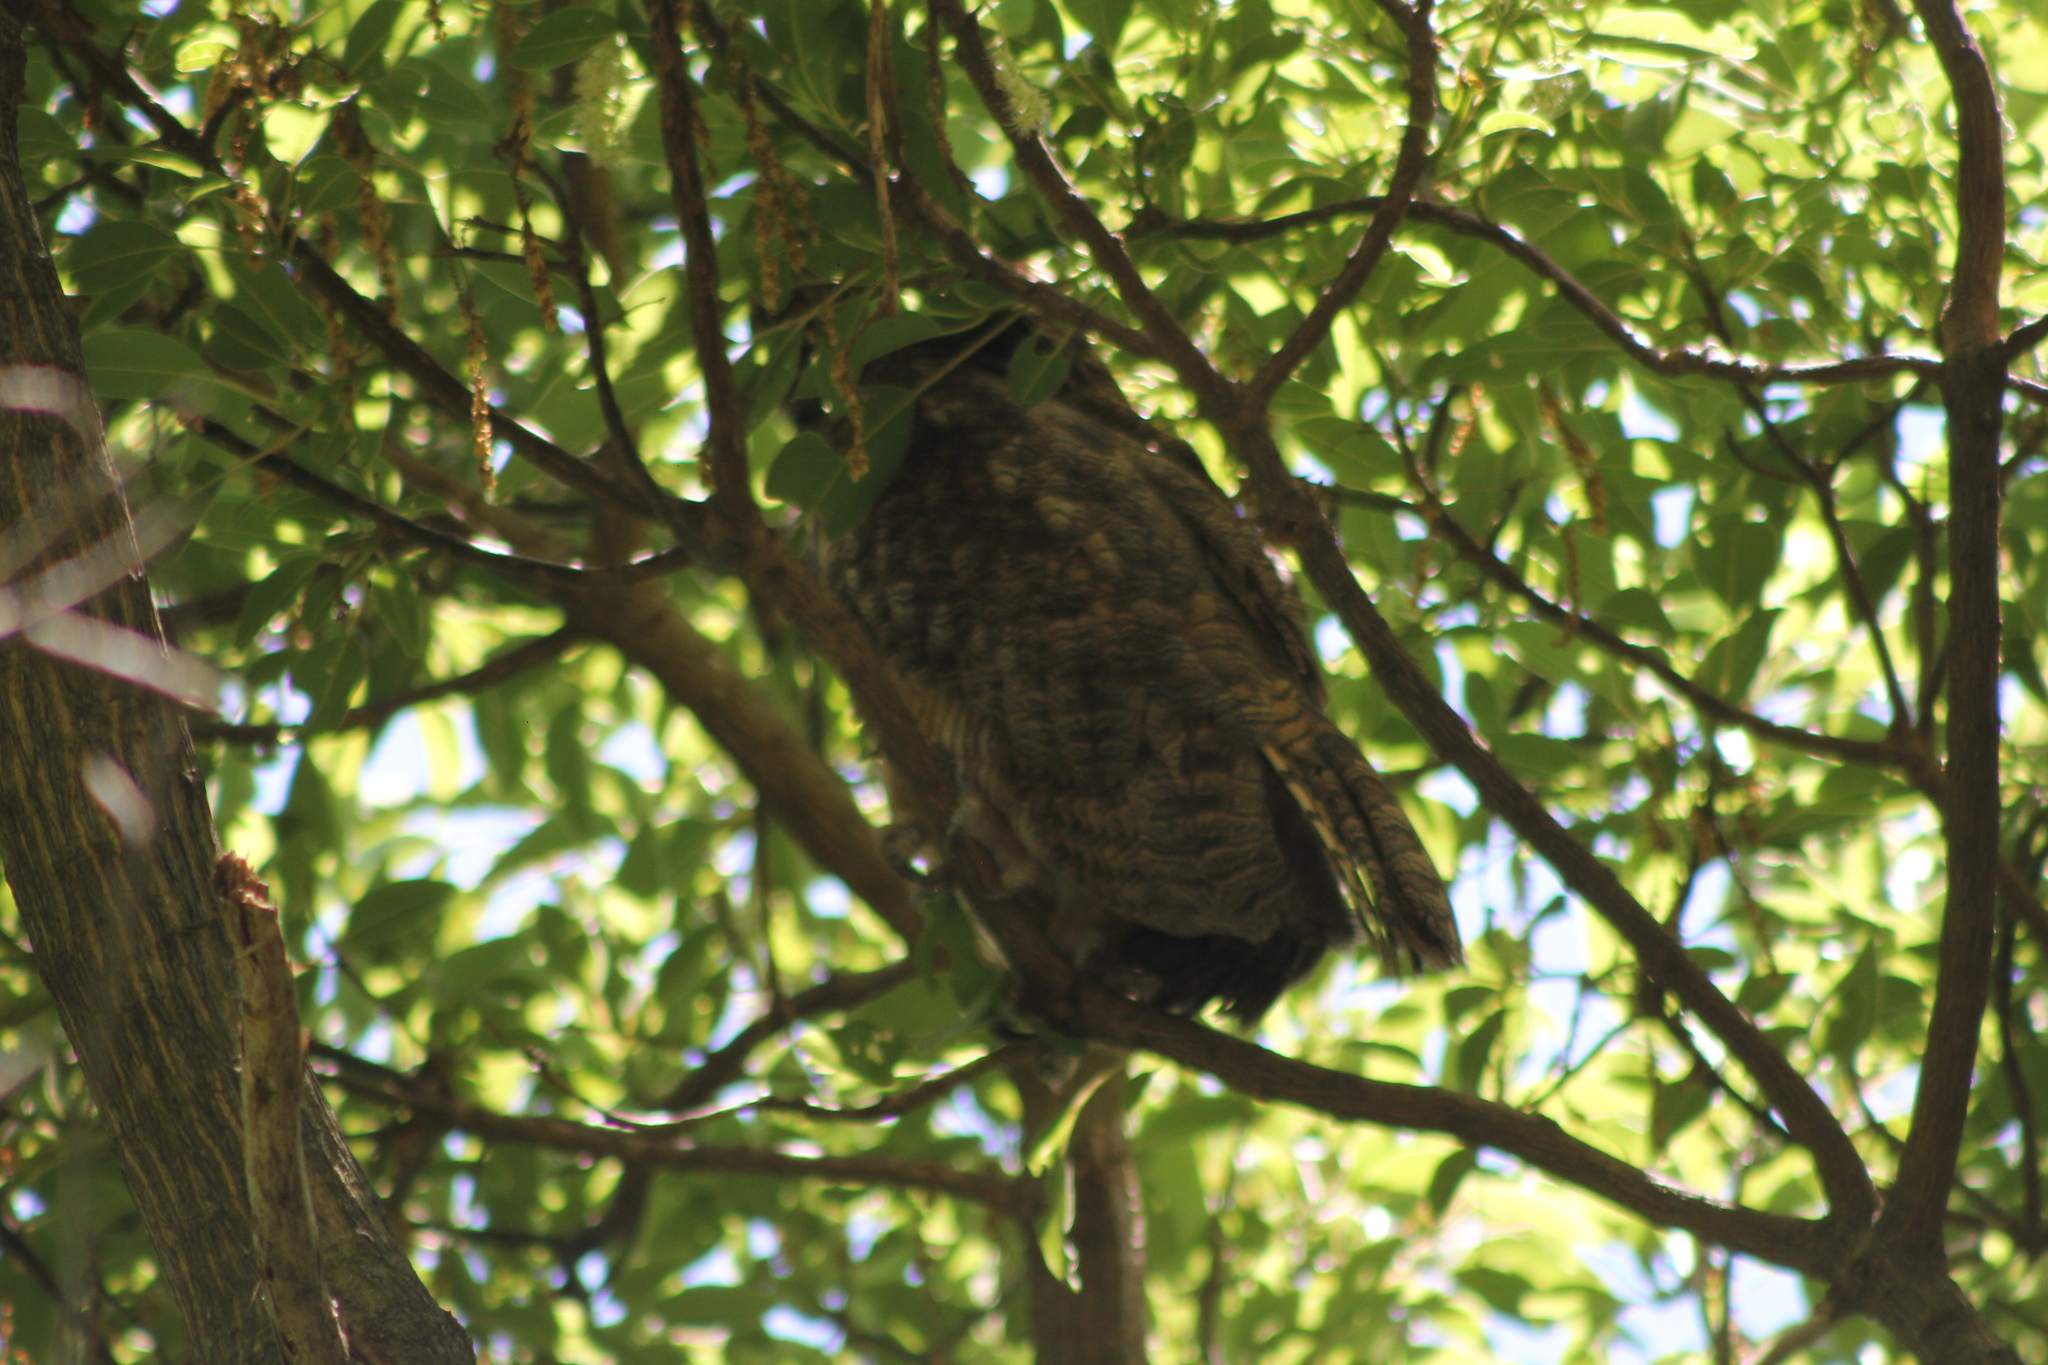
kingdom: Animalia
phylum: Chordata
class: Aves
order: Strigiformes
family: Strigidae
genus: Bubo
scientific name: Bubo virginianus
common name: Great horned owl
